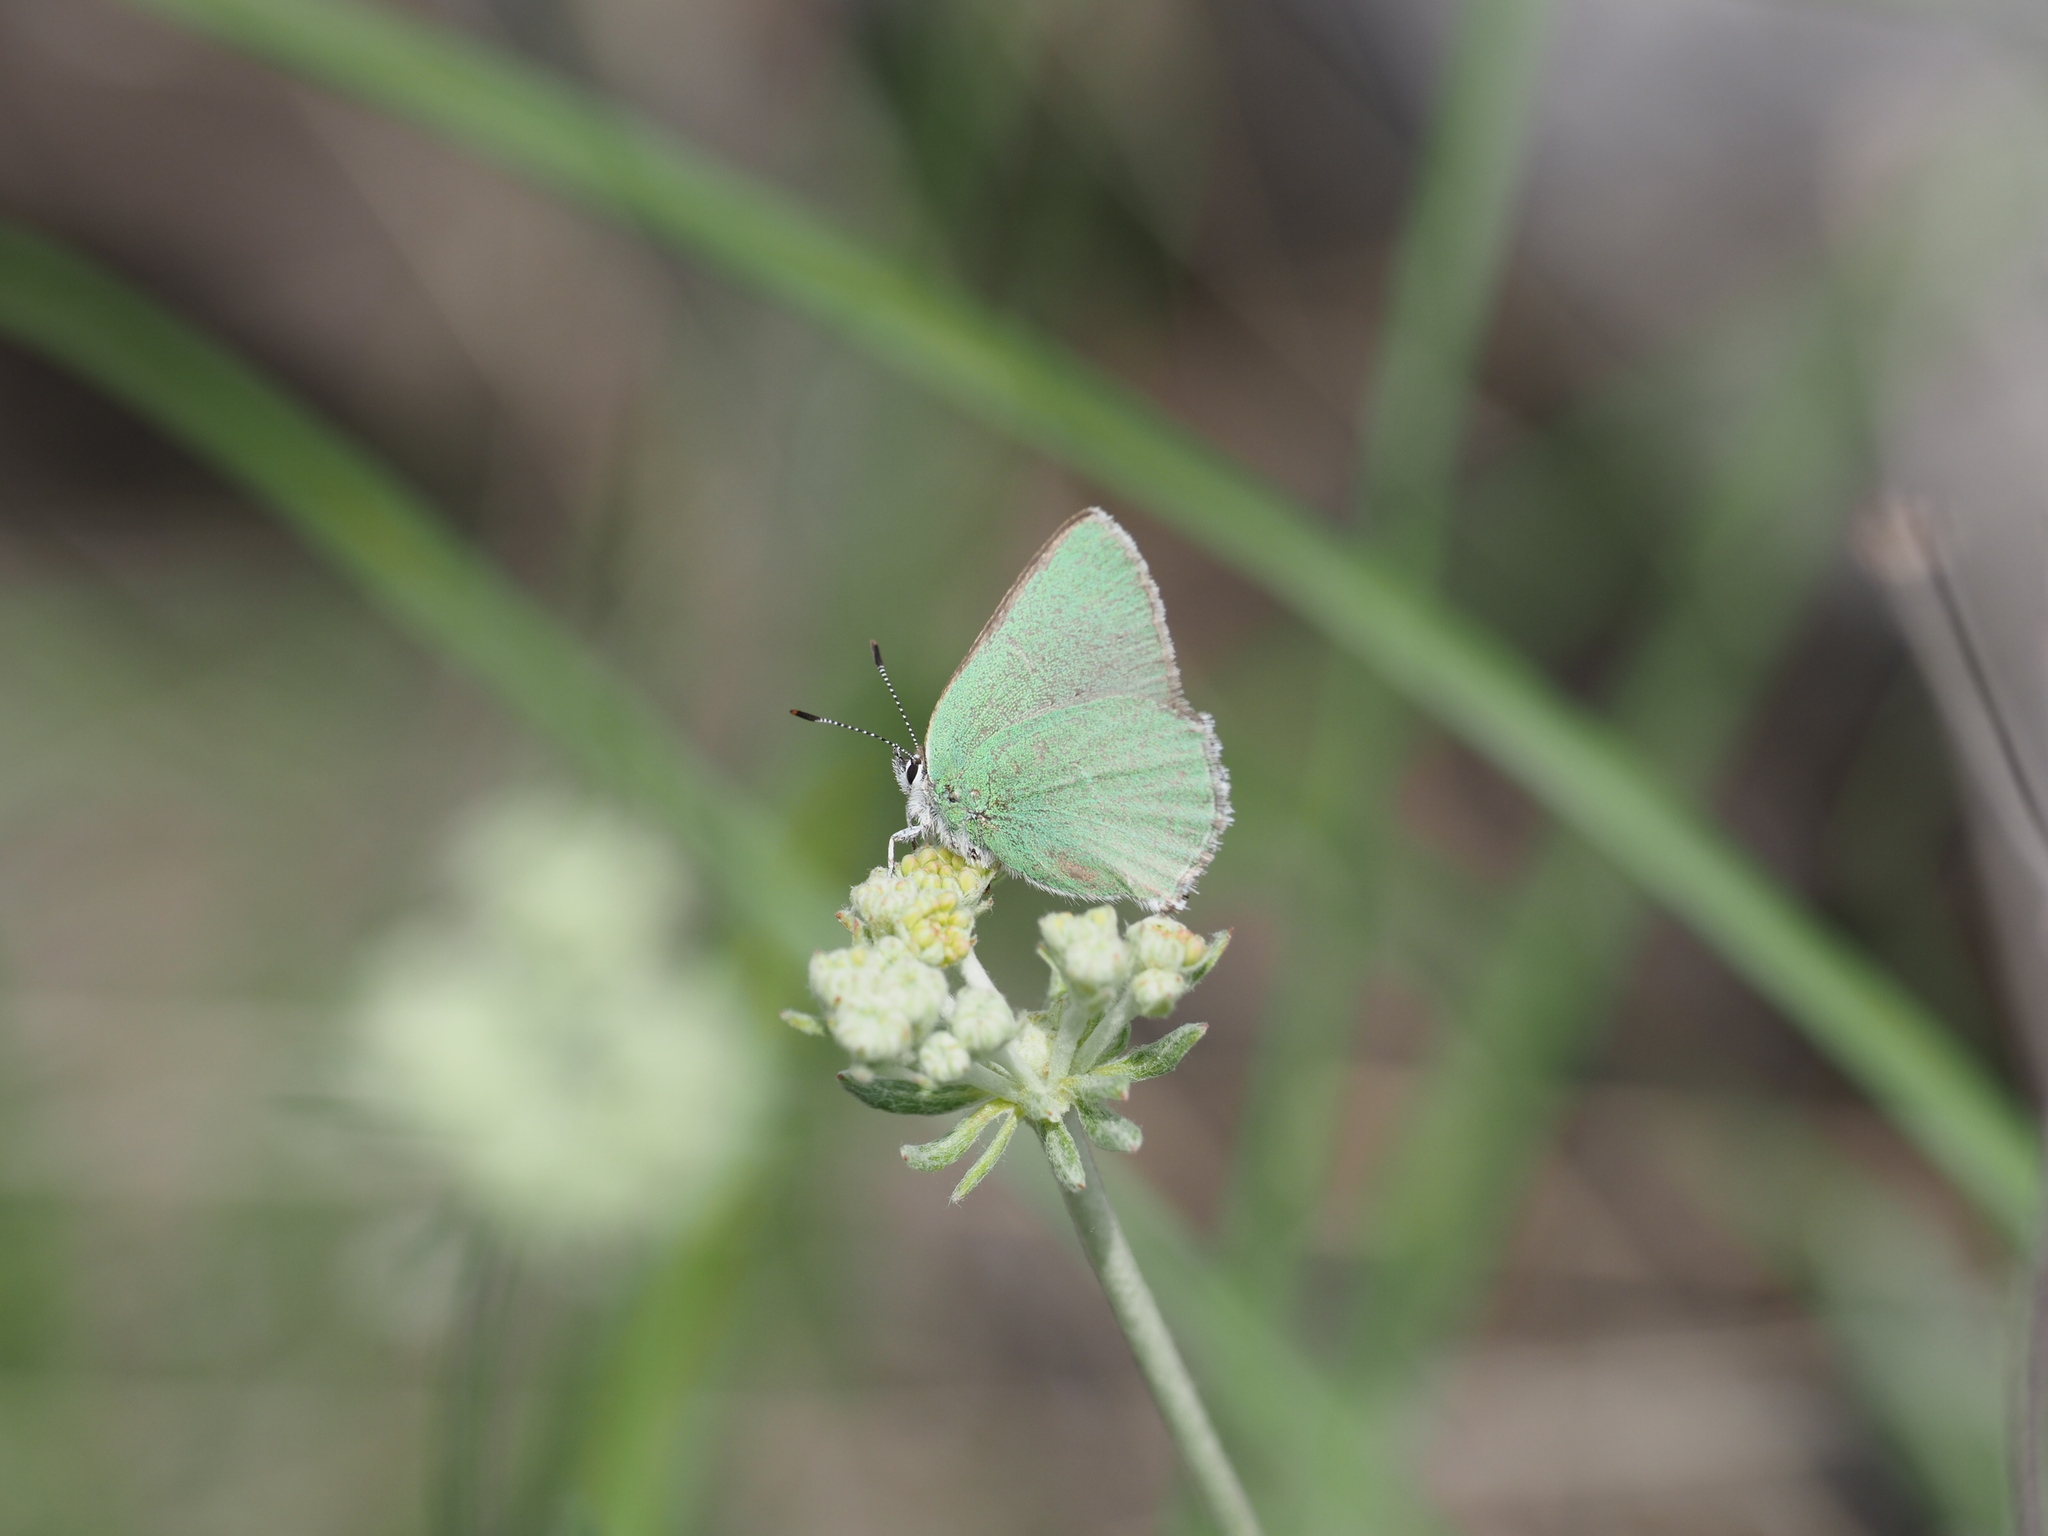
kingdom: Animalia
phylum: Arthropoda
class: Insecta
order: Lepidoptera
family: Lycaenidae
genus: Callophrys
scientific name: Callophrys affinis
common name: Western green hairstreak
